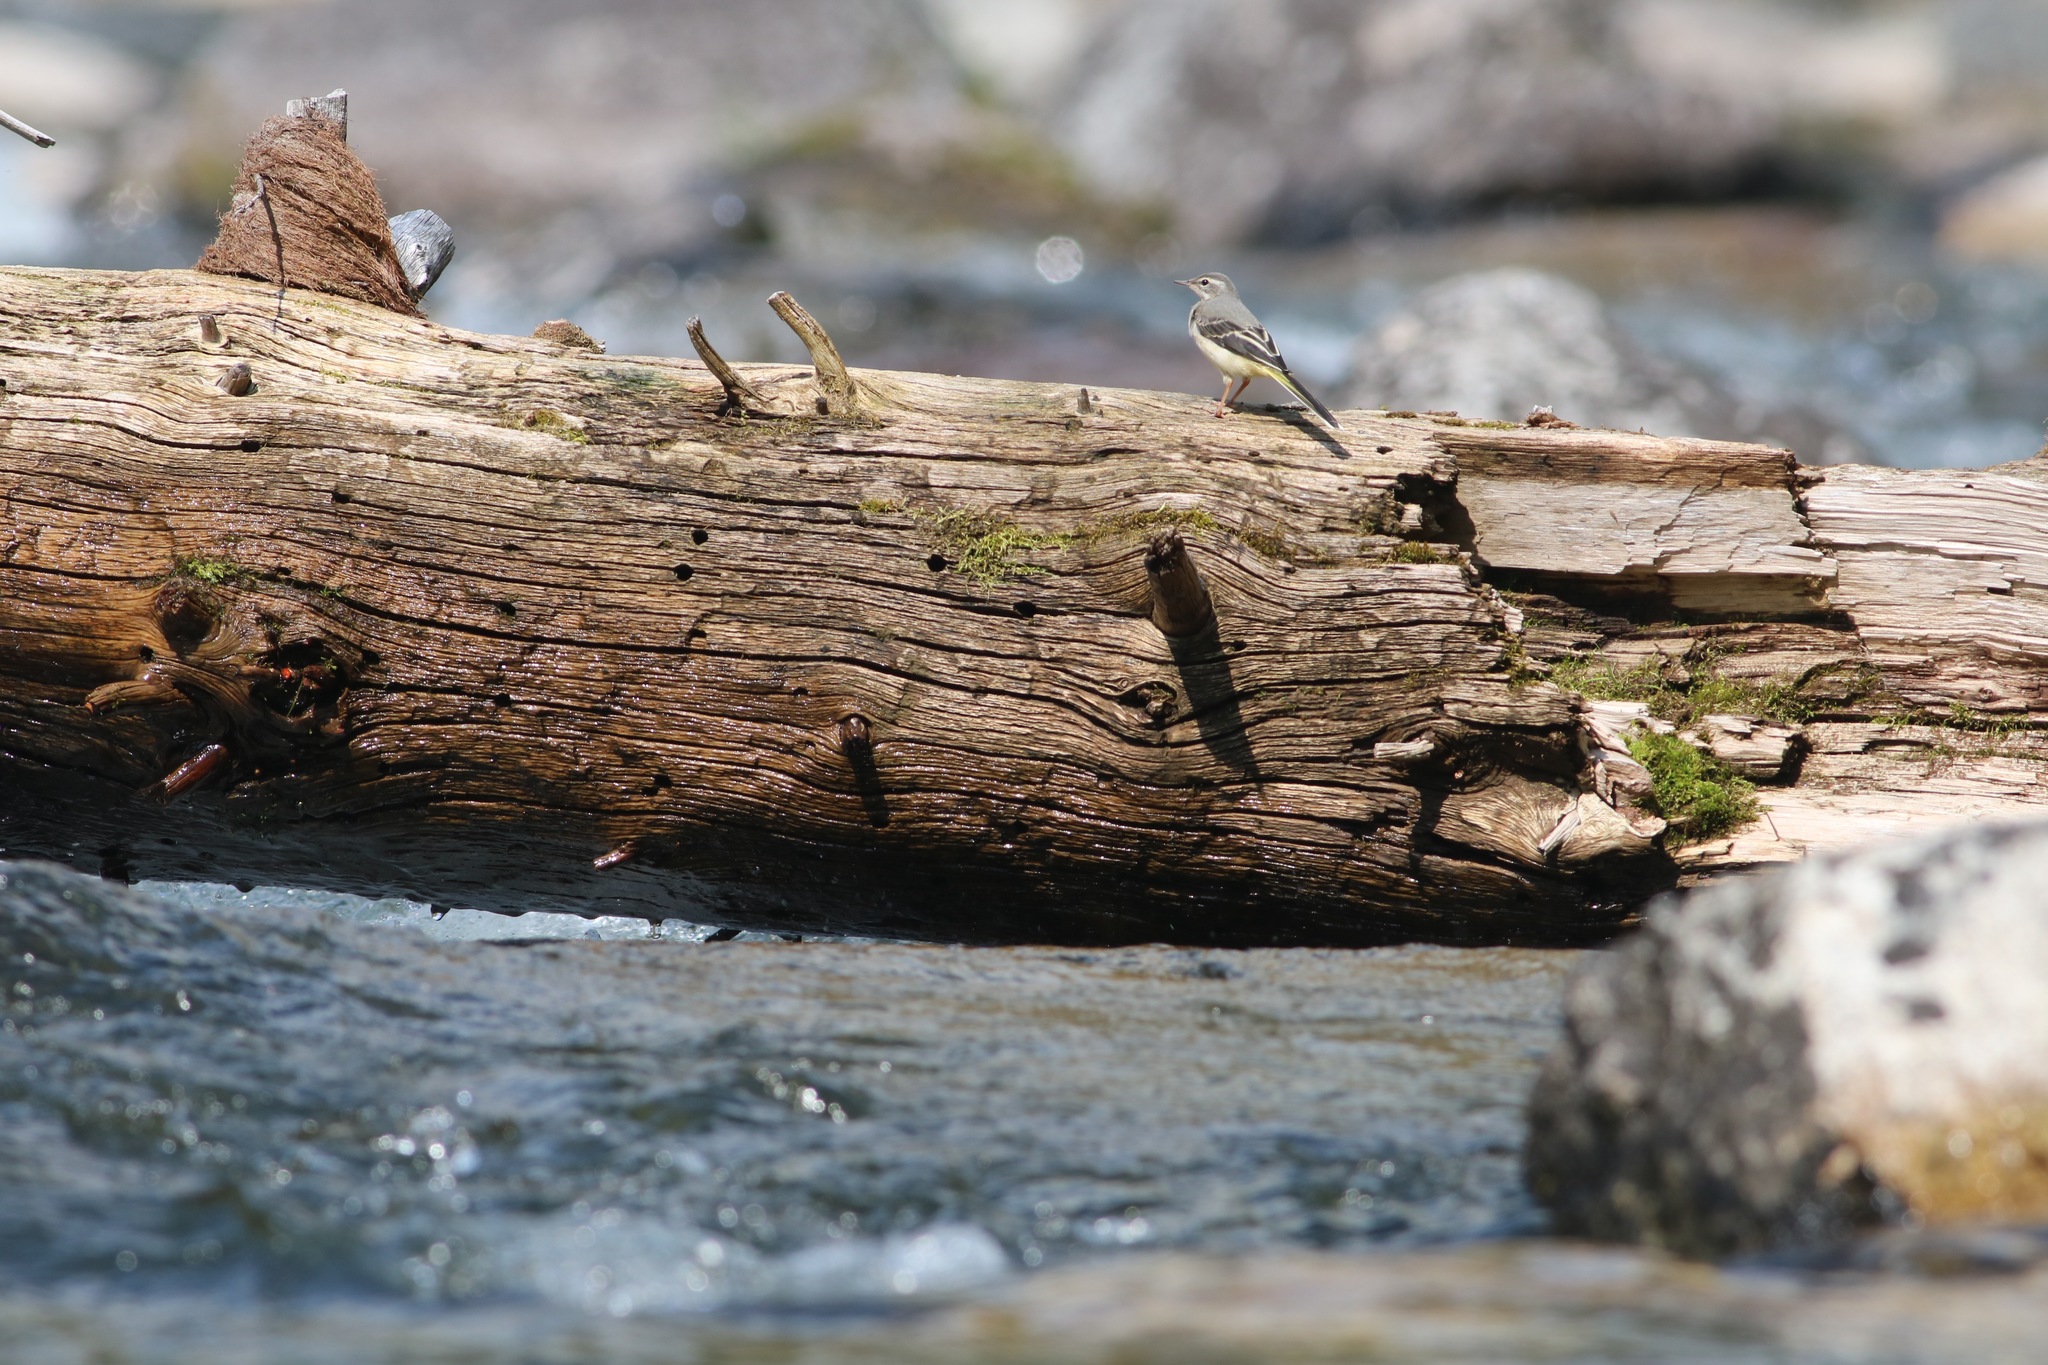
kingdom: Animalia
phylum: Chordata
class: Aves
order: Passeriformes
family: Motacillidae
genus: Motacilla
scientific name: Motacilla cinerea
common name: Grey wagtail
